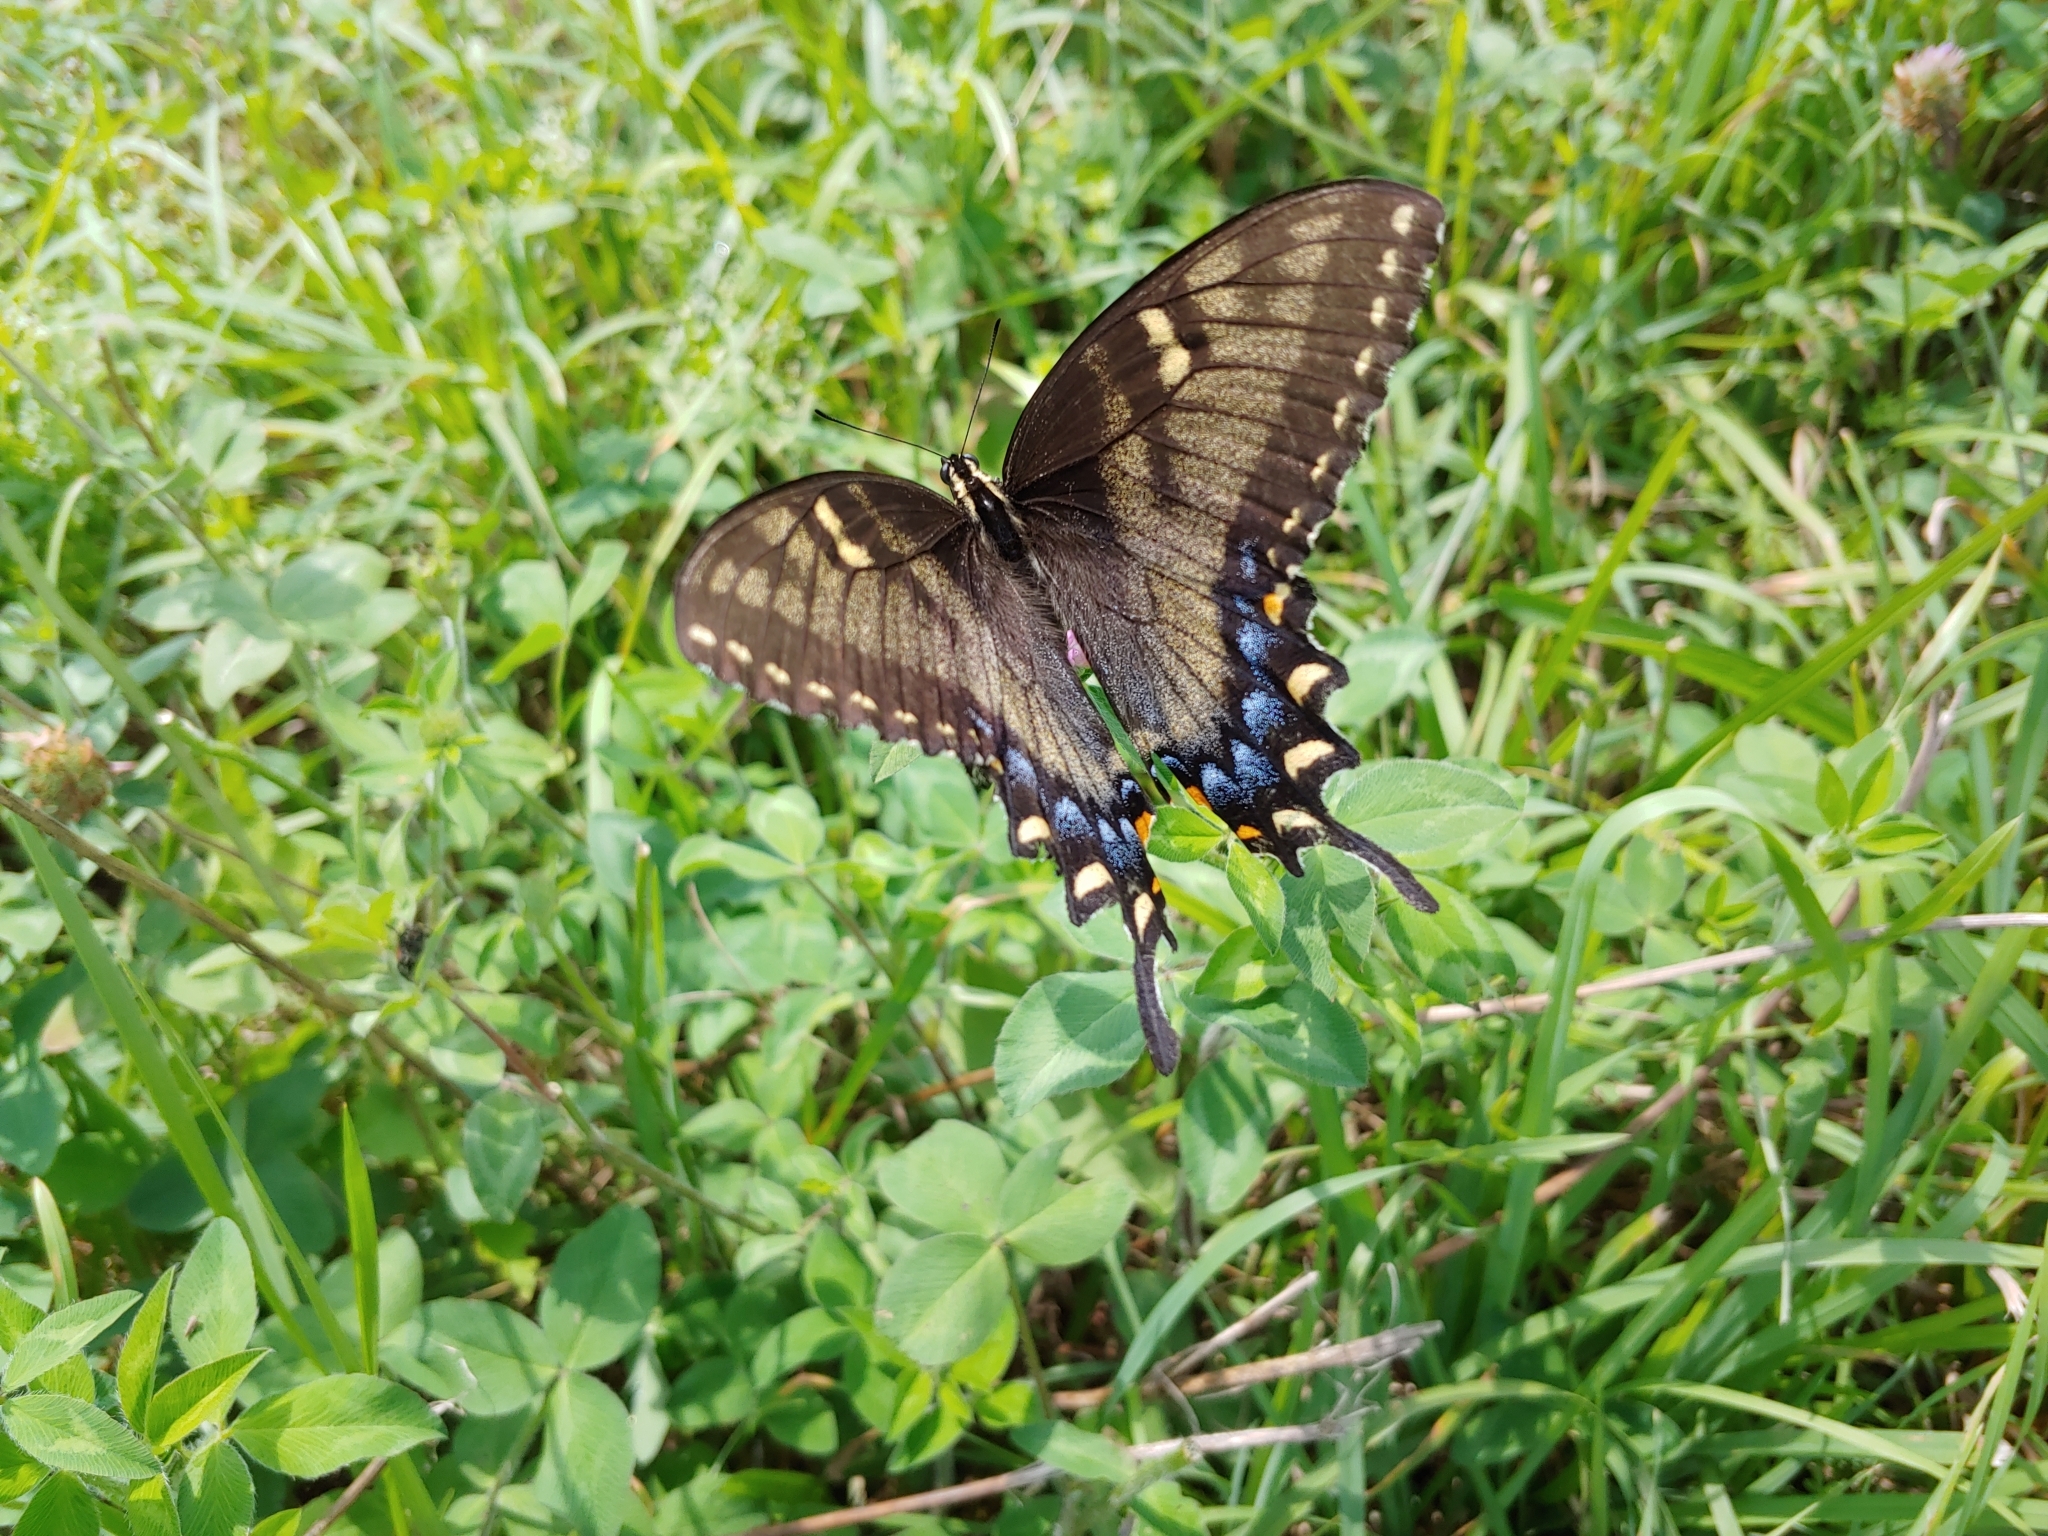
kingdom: Animalia
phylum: Arthropoda
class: Insecta
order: Lepidoptera
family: Papilionidae
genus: Papilio
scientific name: Papilio glaucus
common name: Tiger swallowtail
